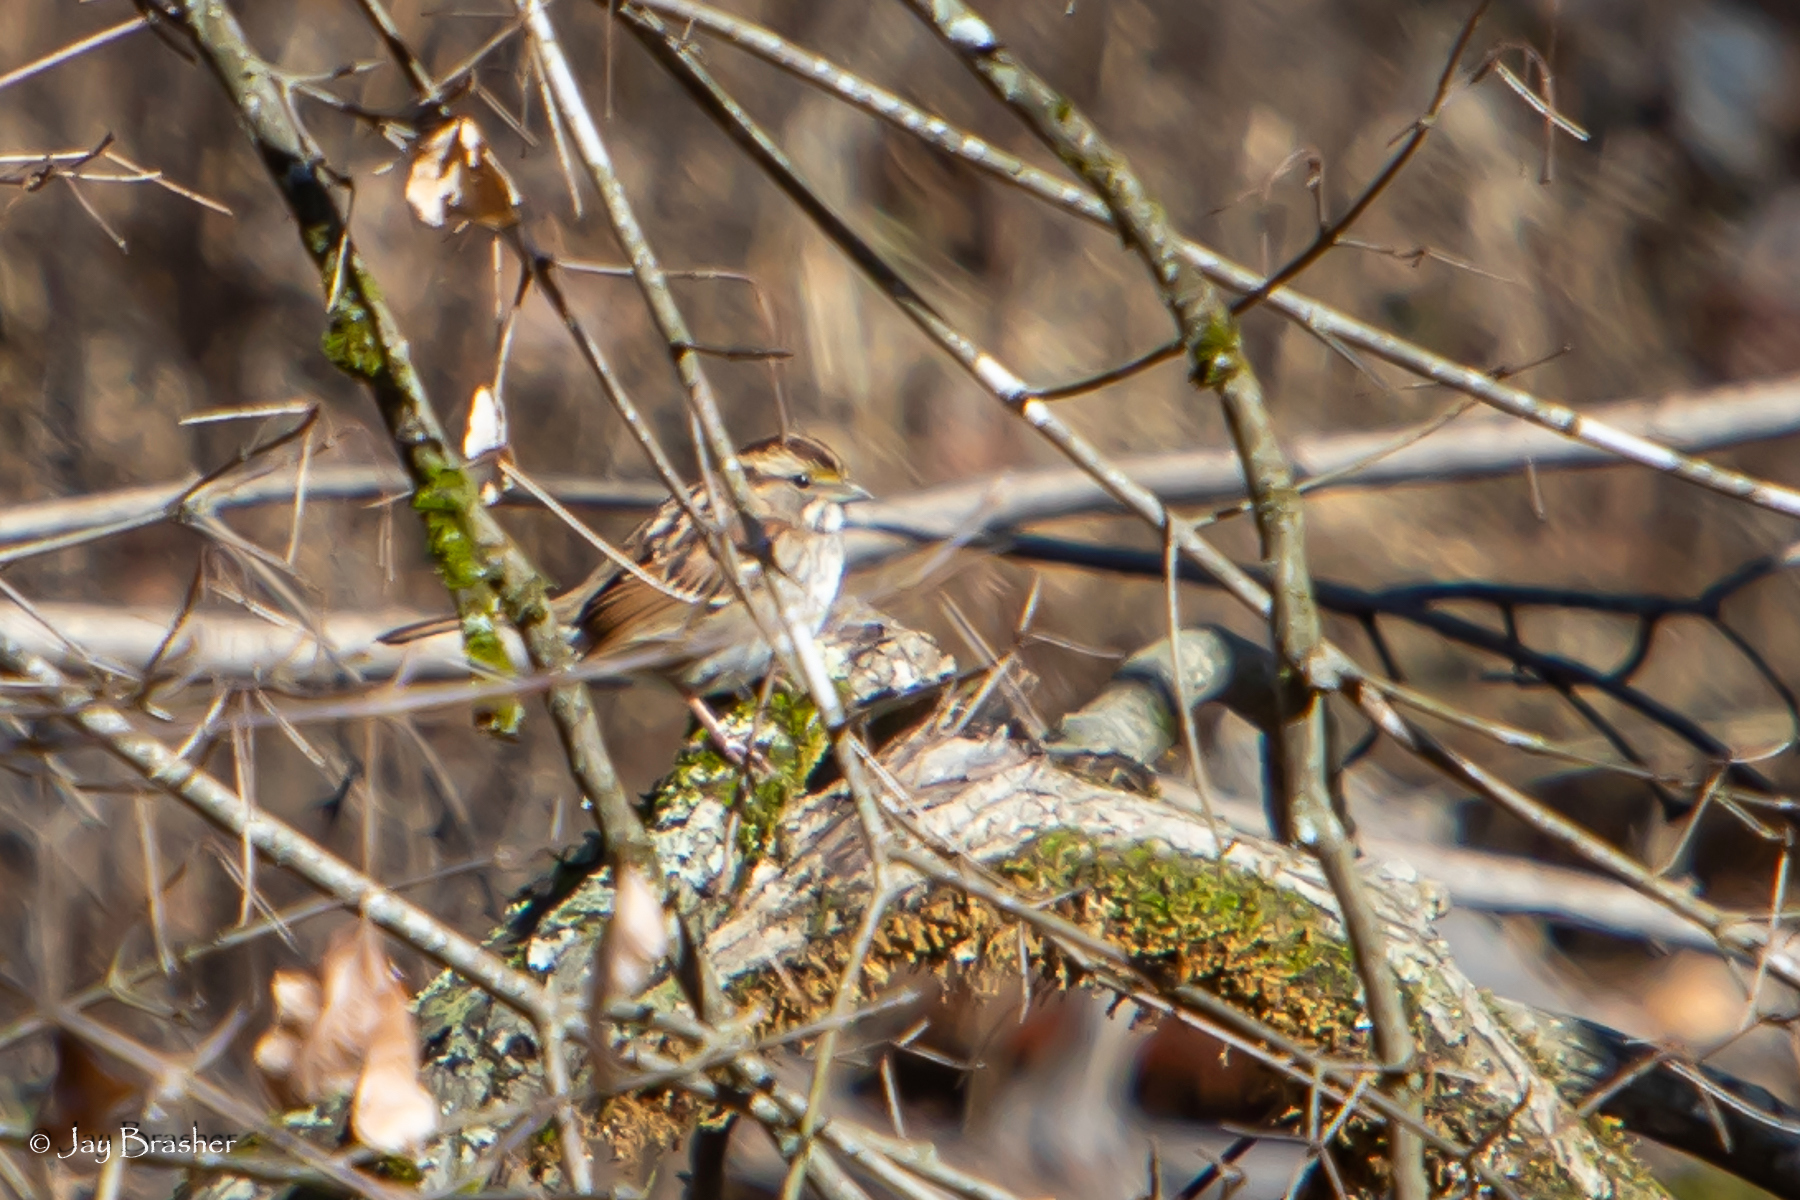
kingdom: Animalia
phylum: Chordata
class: Aves
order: Passeriformes
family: Passerellidae
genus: Zonotrichia
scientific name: Zonotrichia albicollis
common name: White-throated sparrow
